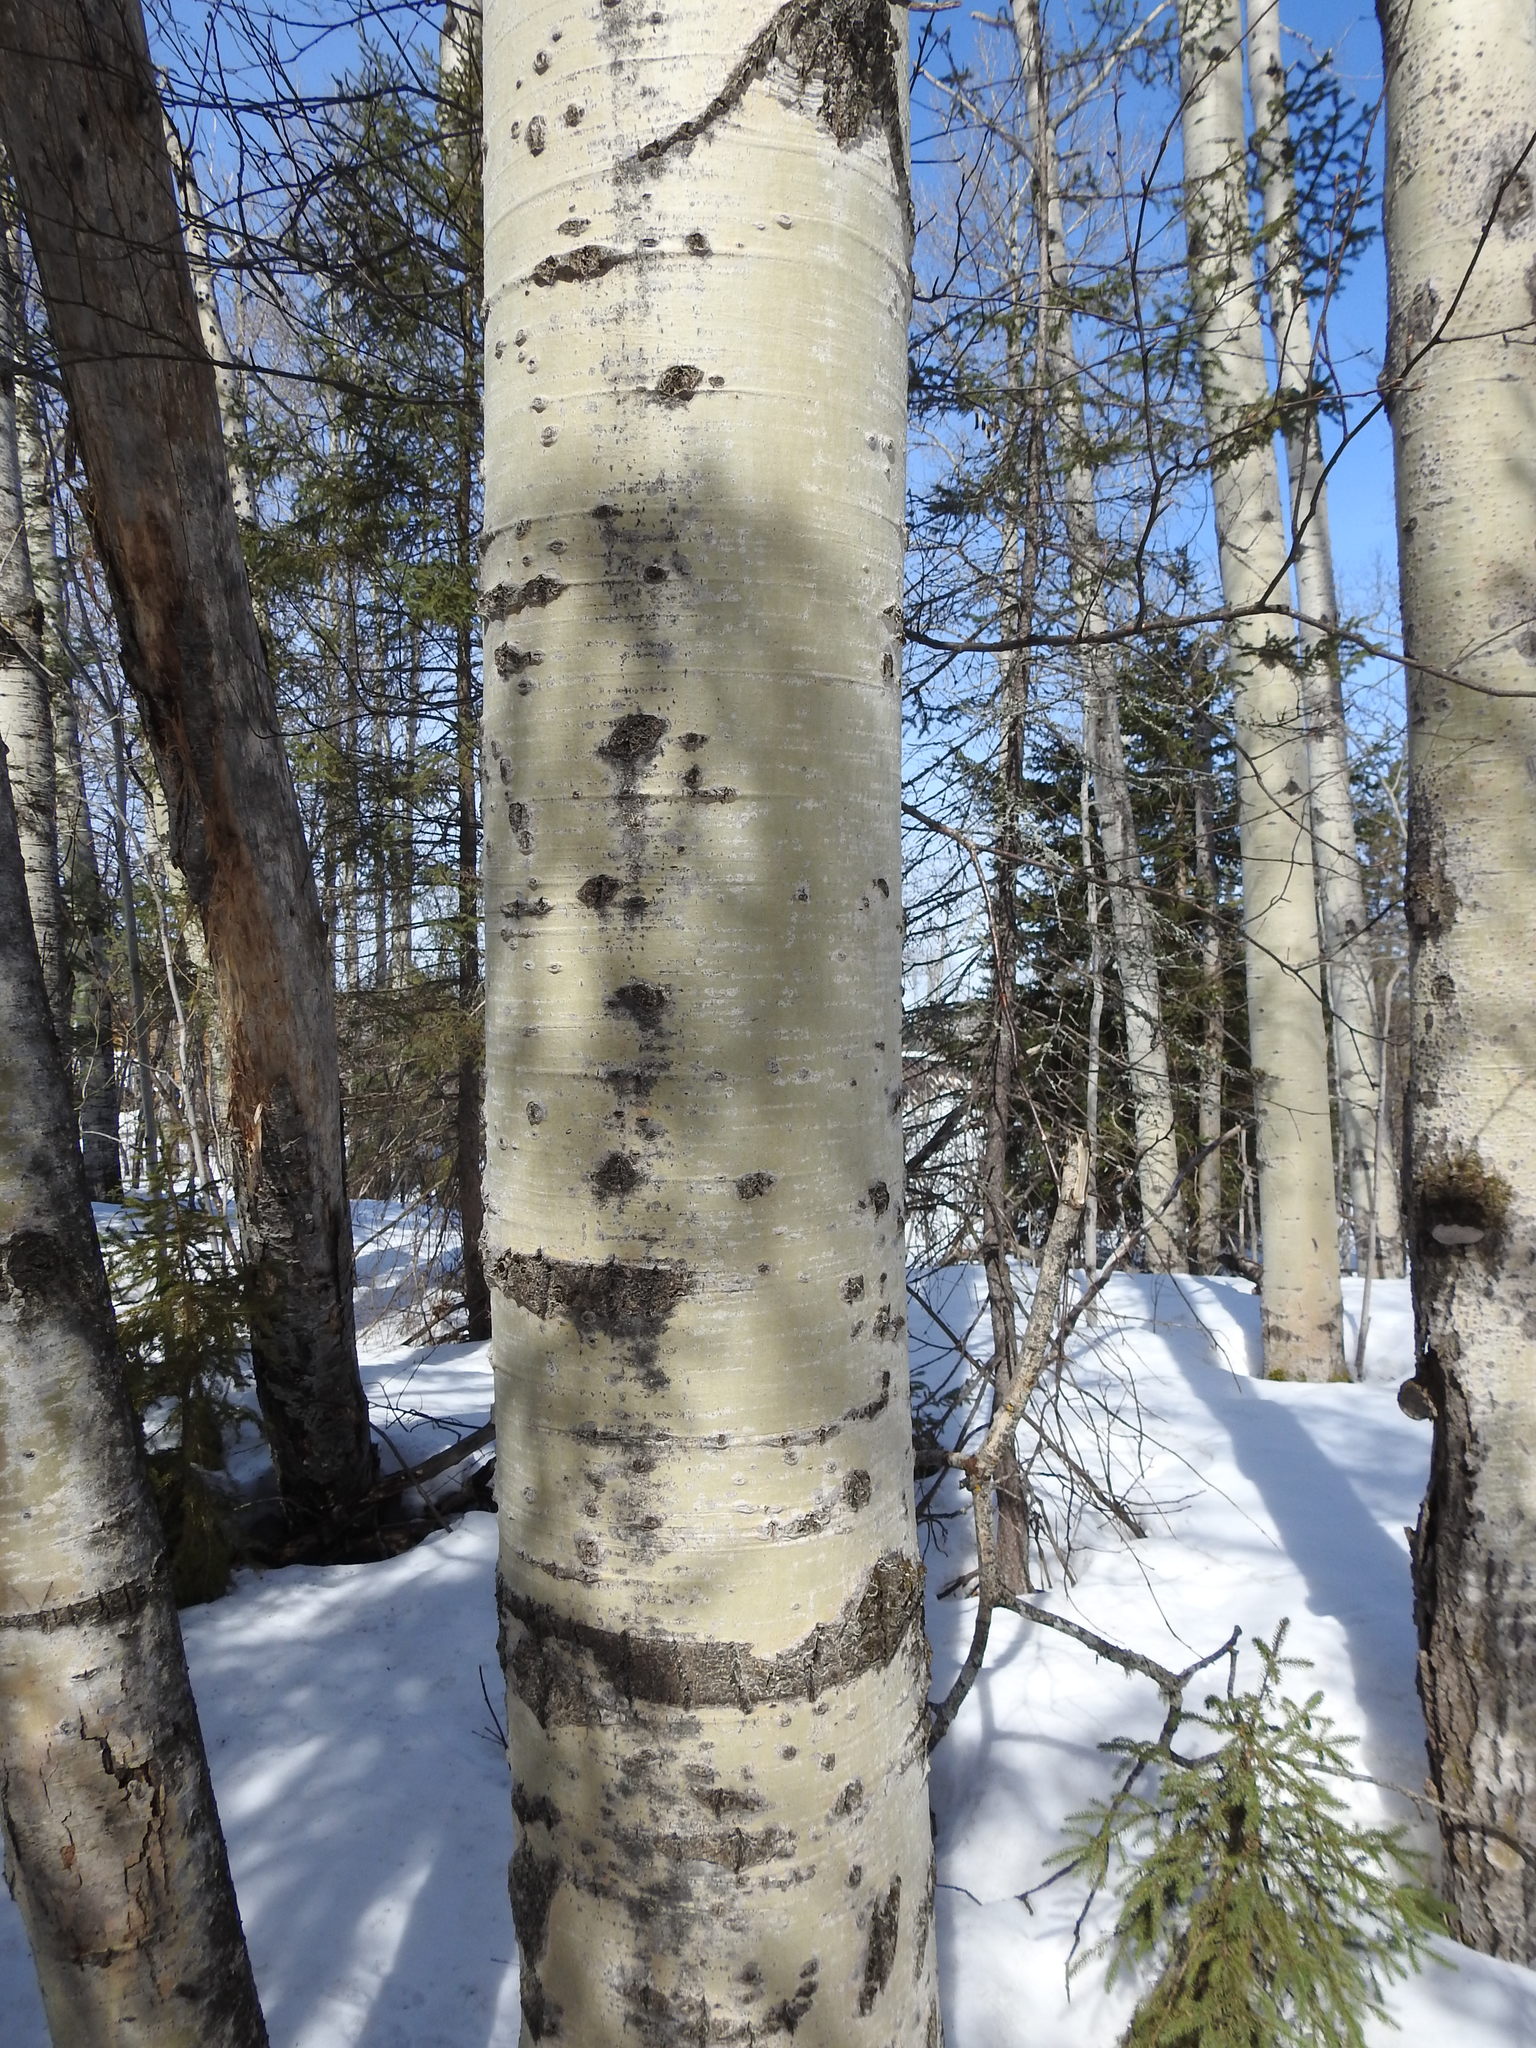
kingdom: Plantae
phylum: Tracheophyta
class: Magnoliopsida
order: Malpighiales
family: Salicaceae
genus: Populus
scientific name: Populus tremuloides
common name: Quaking aspen
